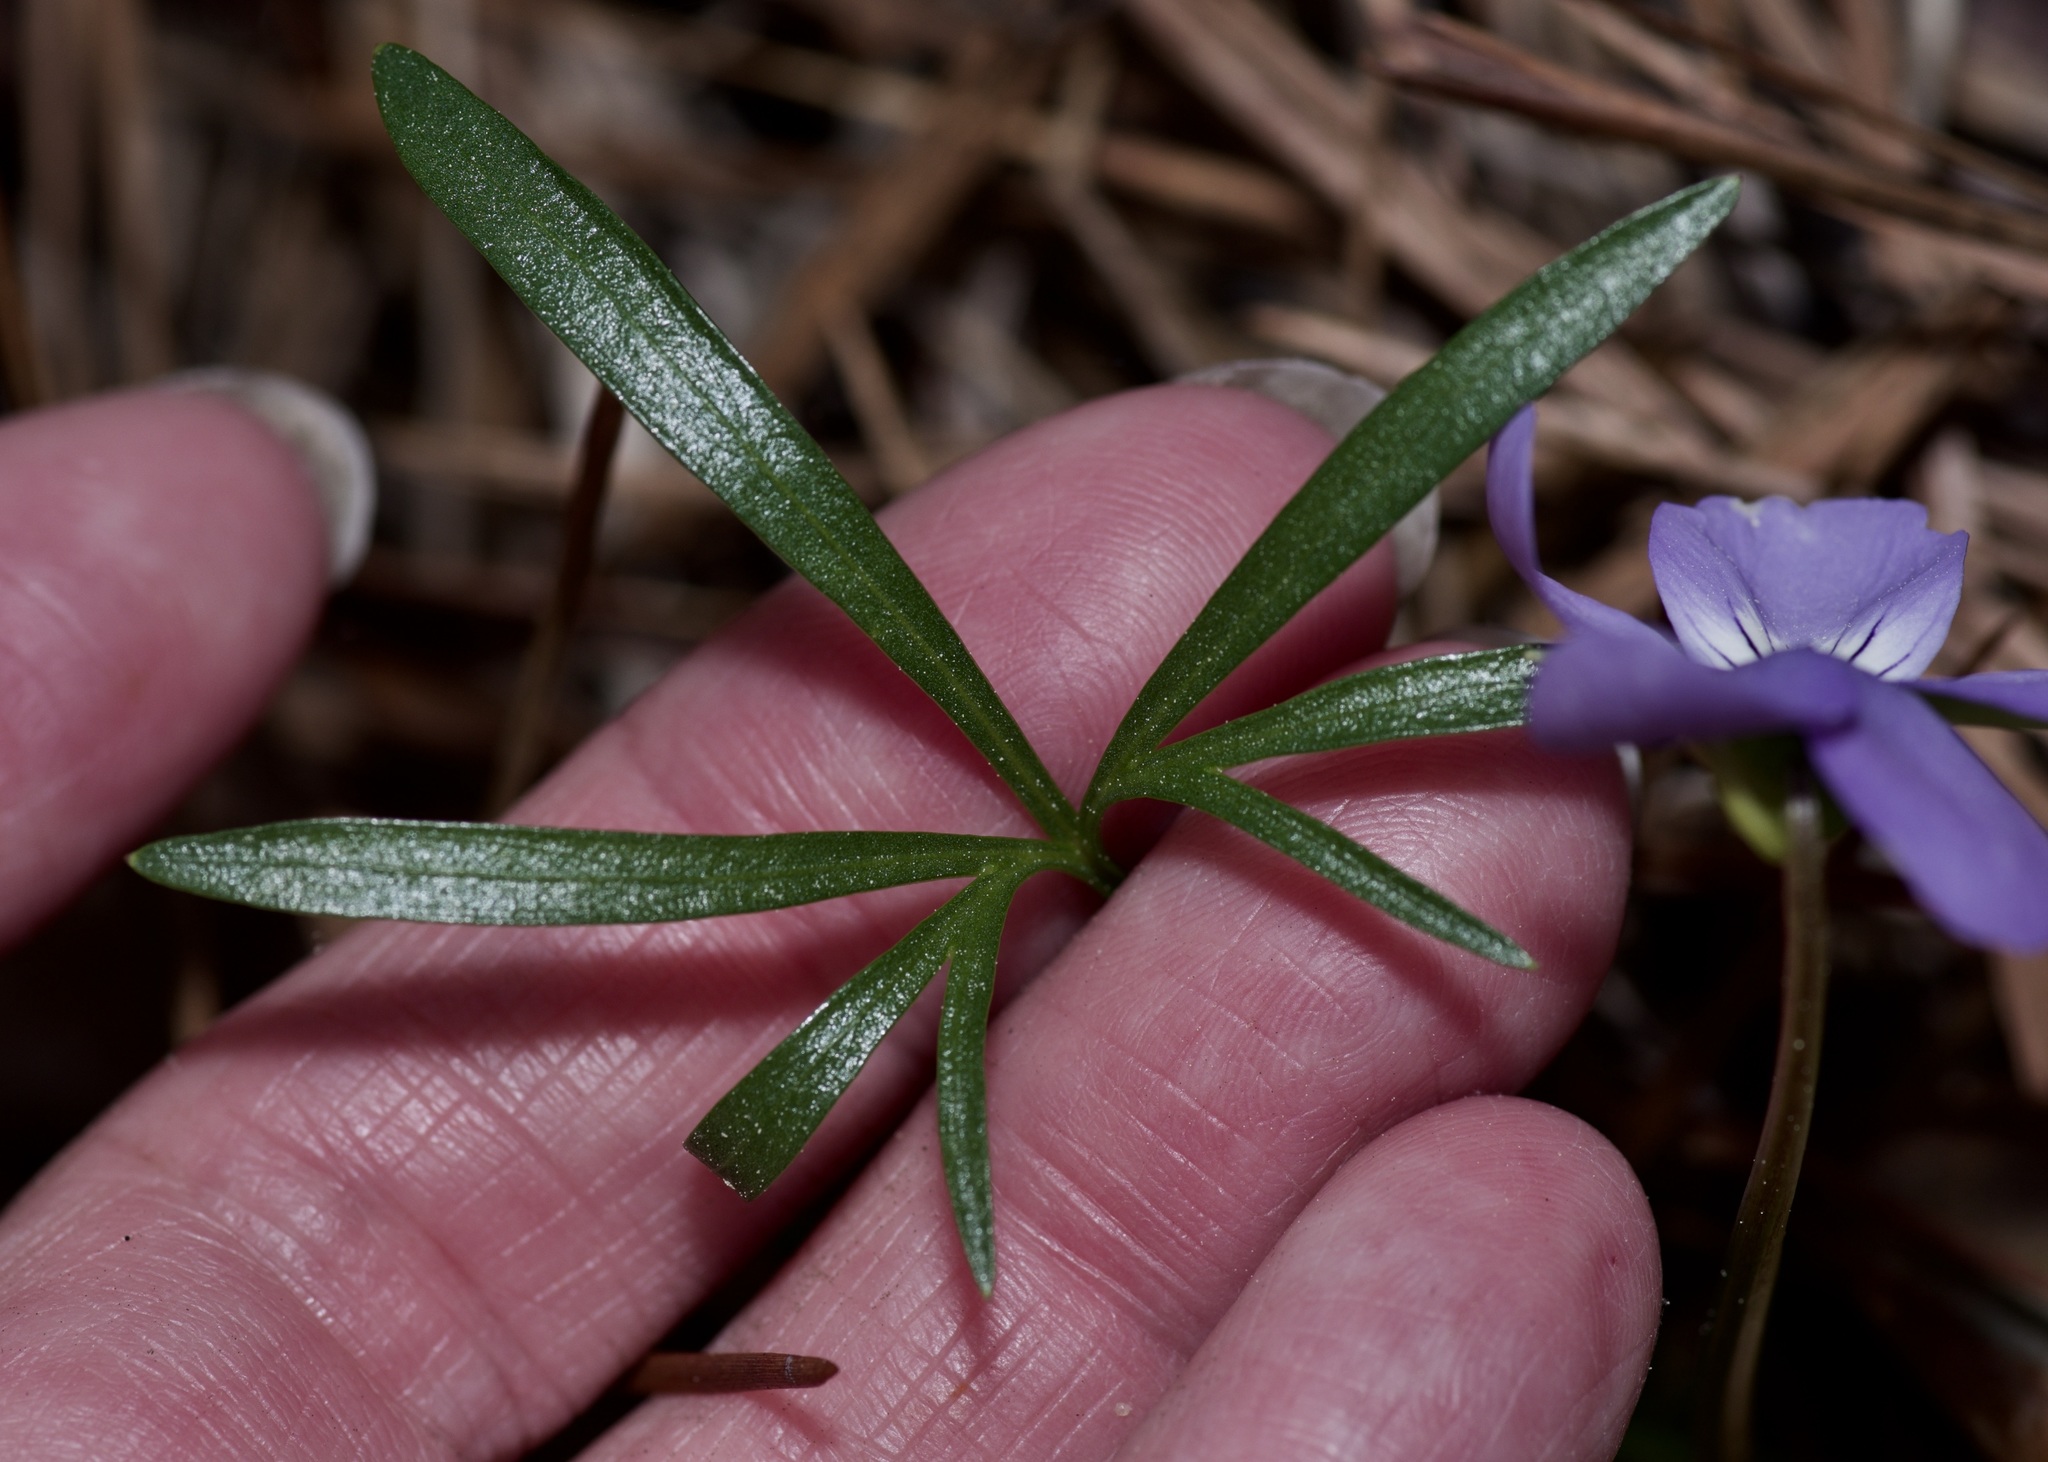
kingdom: Plantae
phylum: Tracheophyta
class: Magnoliopsida
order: Malpighiales
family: Violaceae
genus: Viola
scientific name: Viola pedata
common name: Pansy violet
